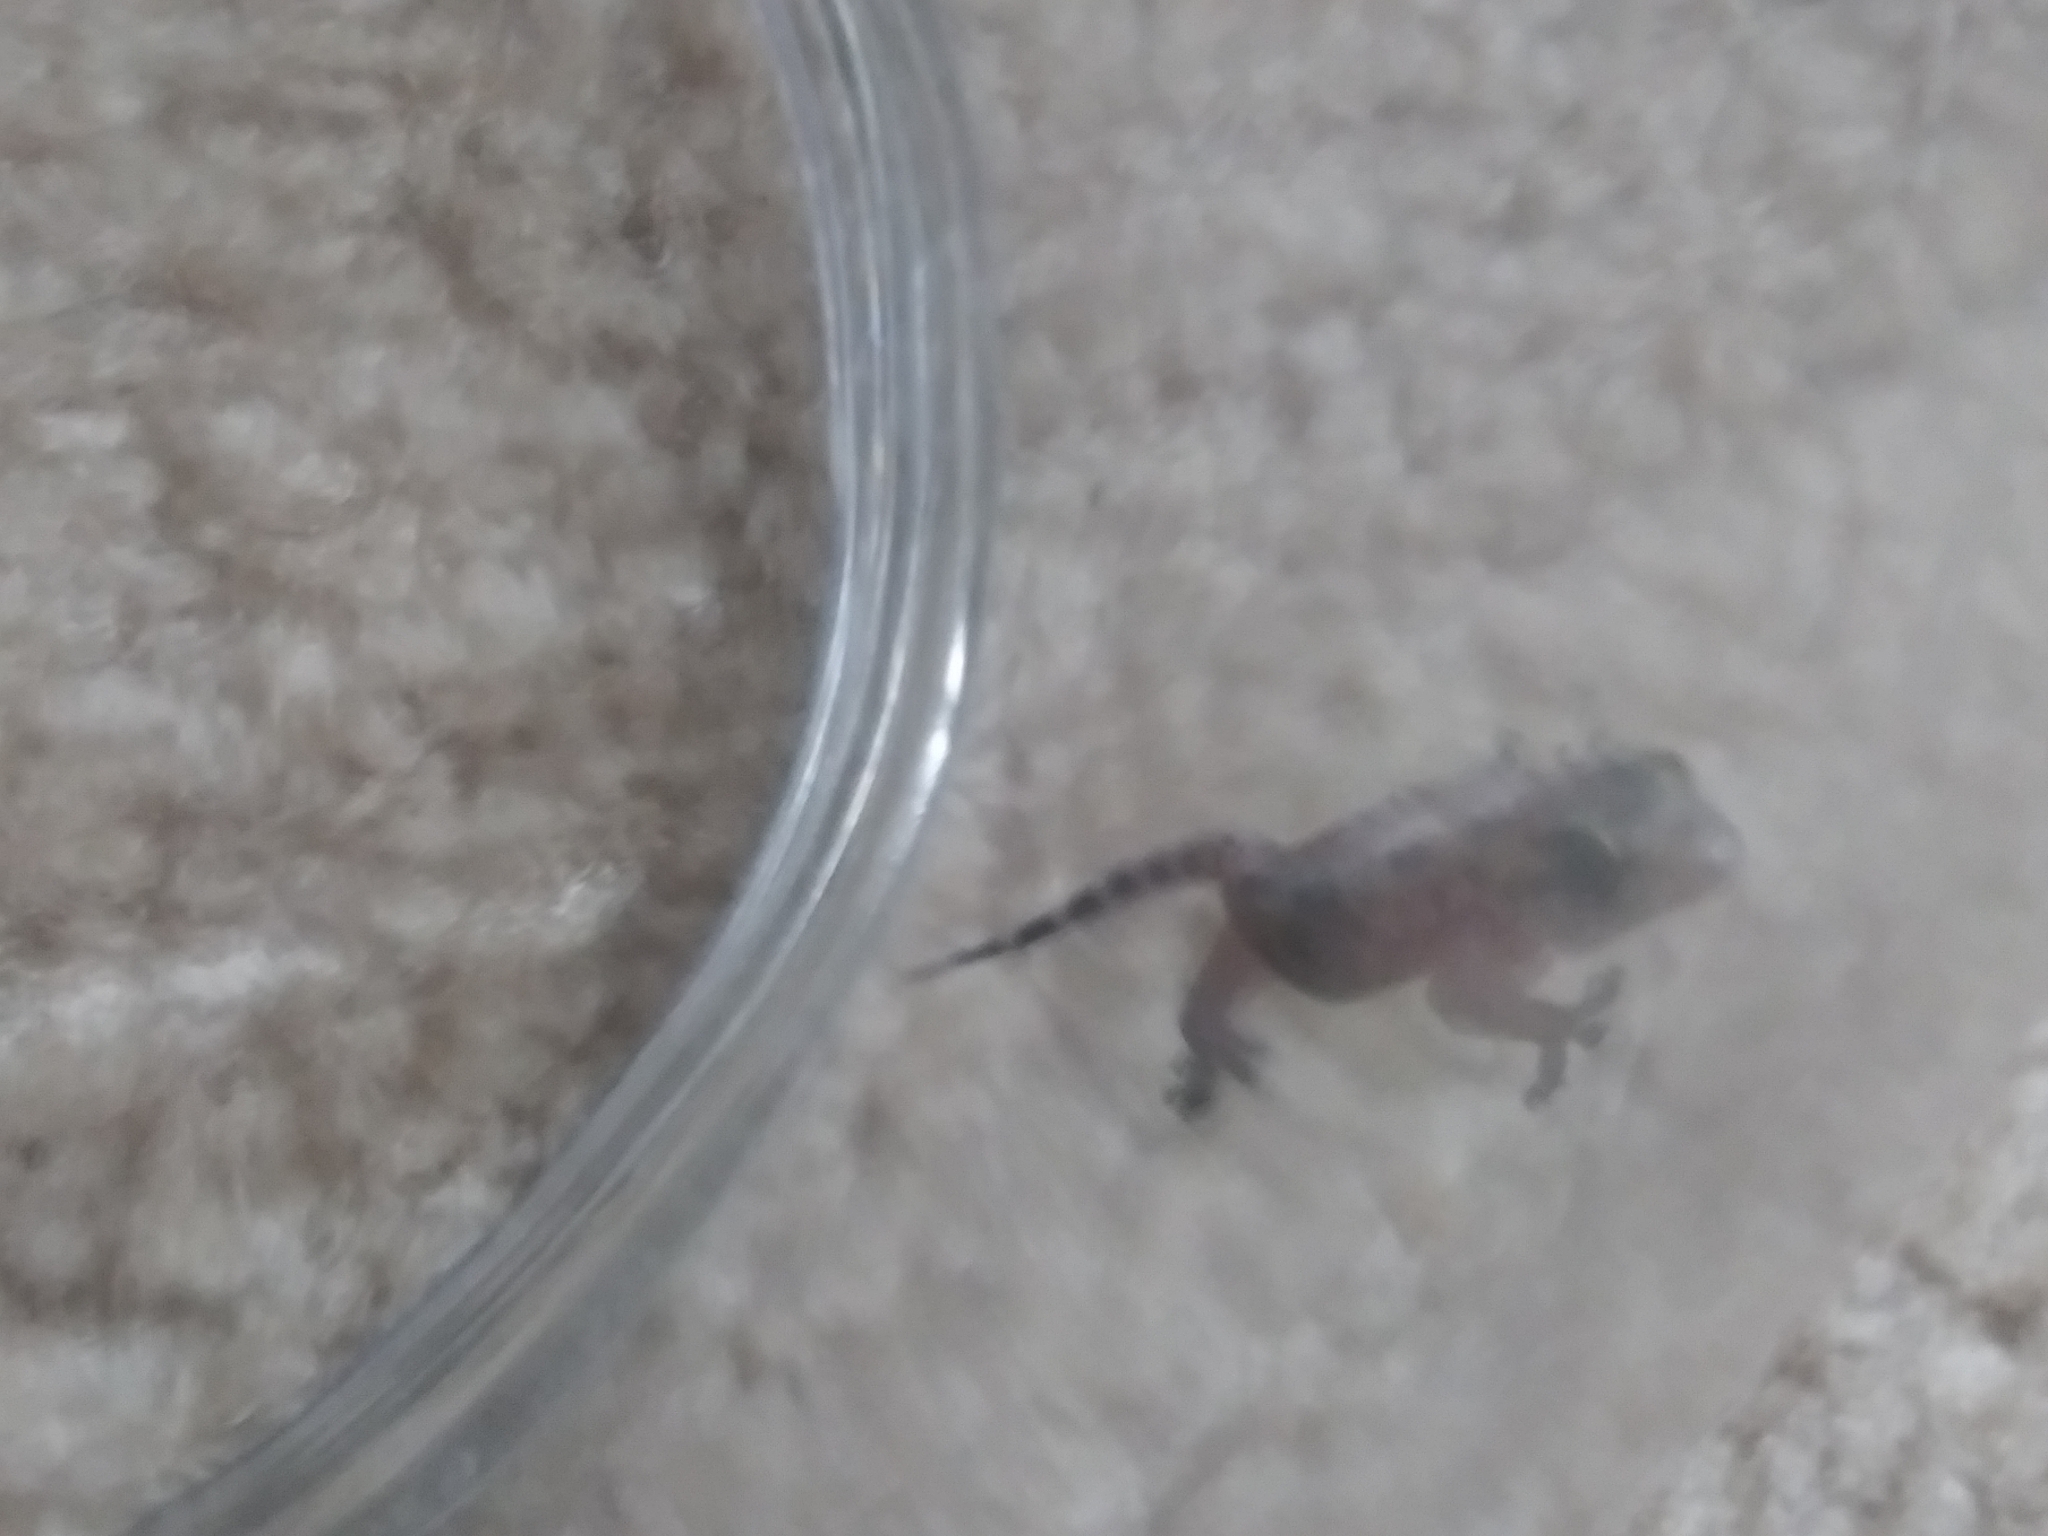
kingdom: Animalia
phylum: Chordata
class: Squamata
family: Gekkonidae
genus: Hemidactylus
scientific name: Hemidactylus turcicus
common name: Turkish gecko
